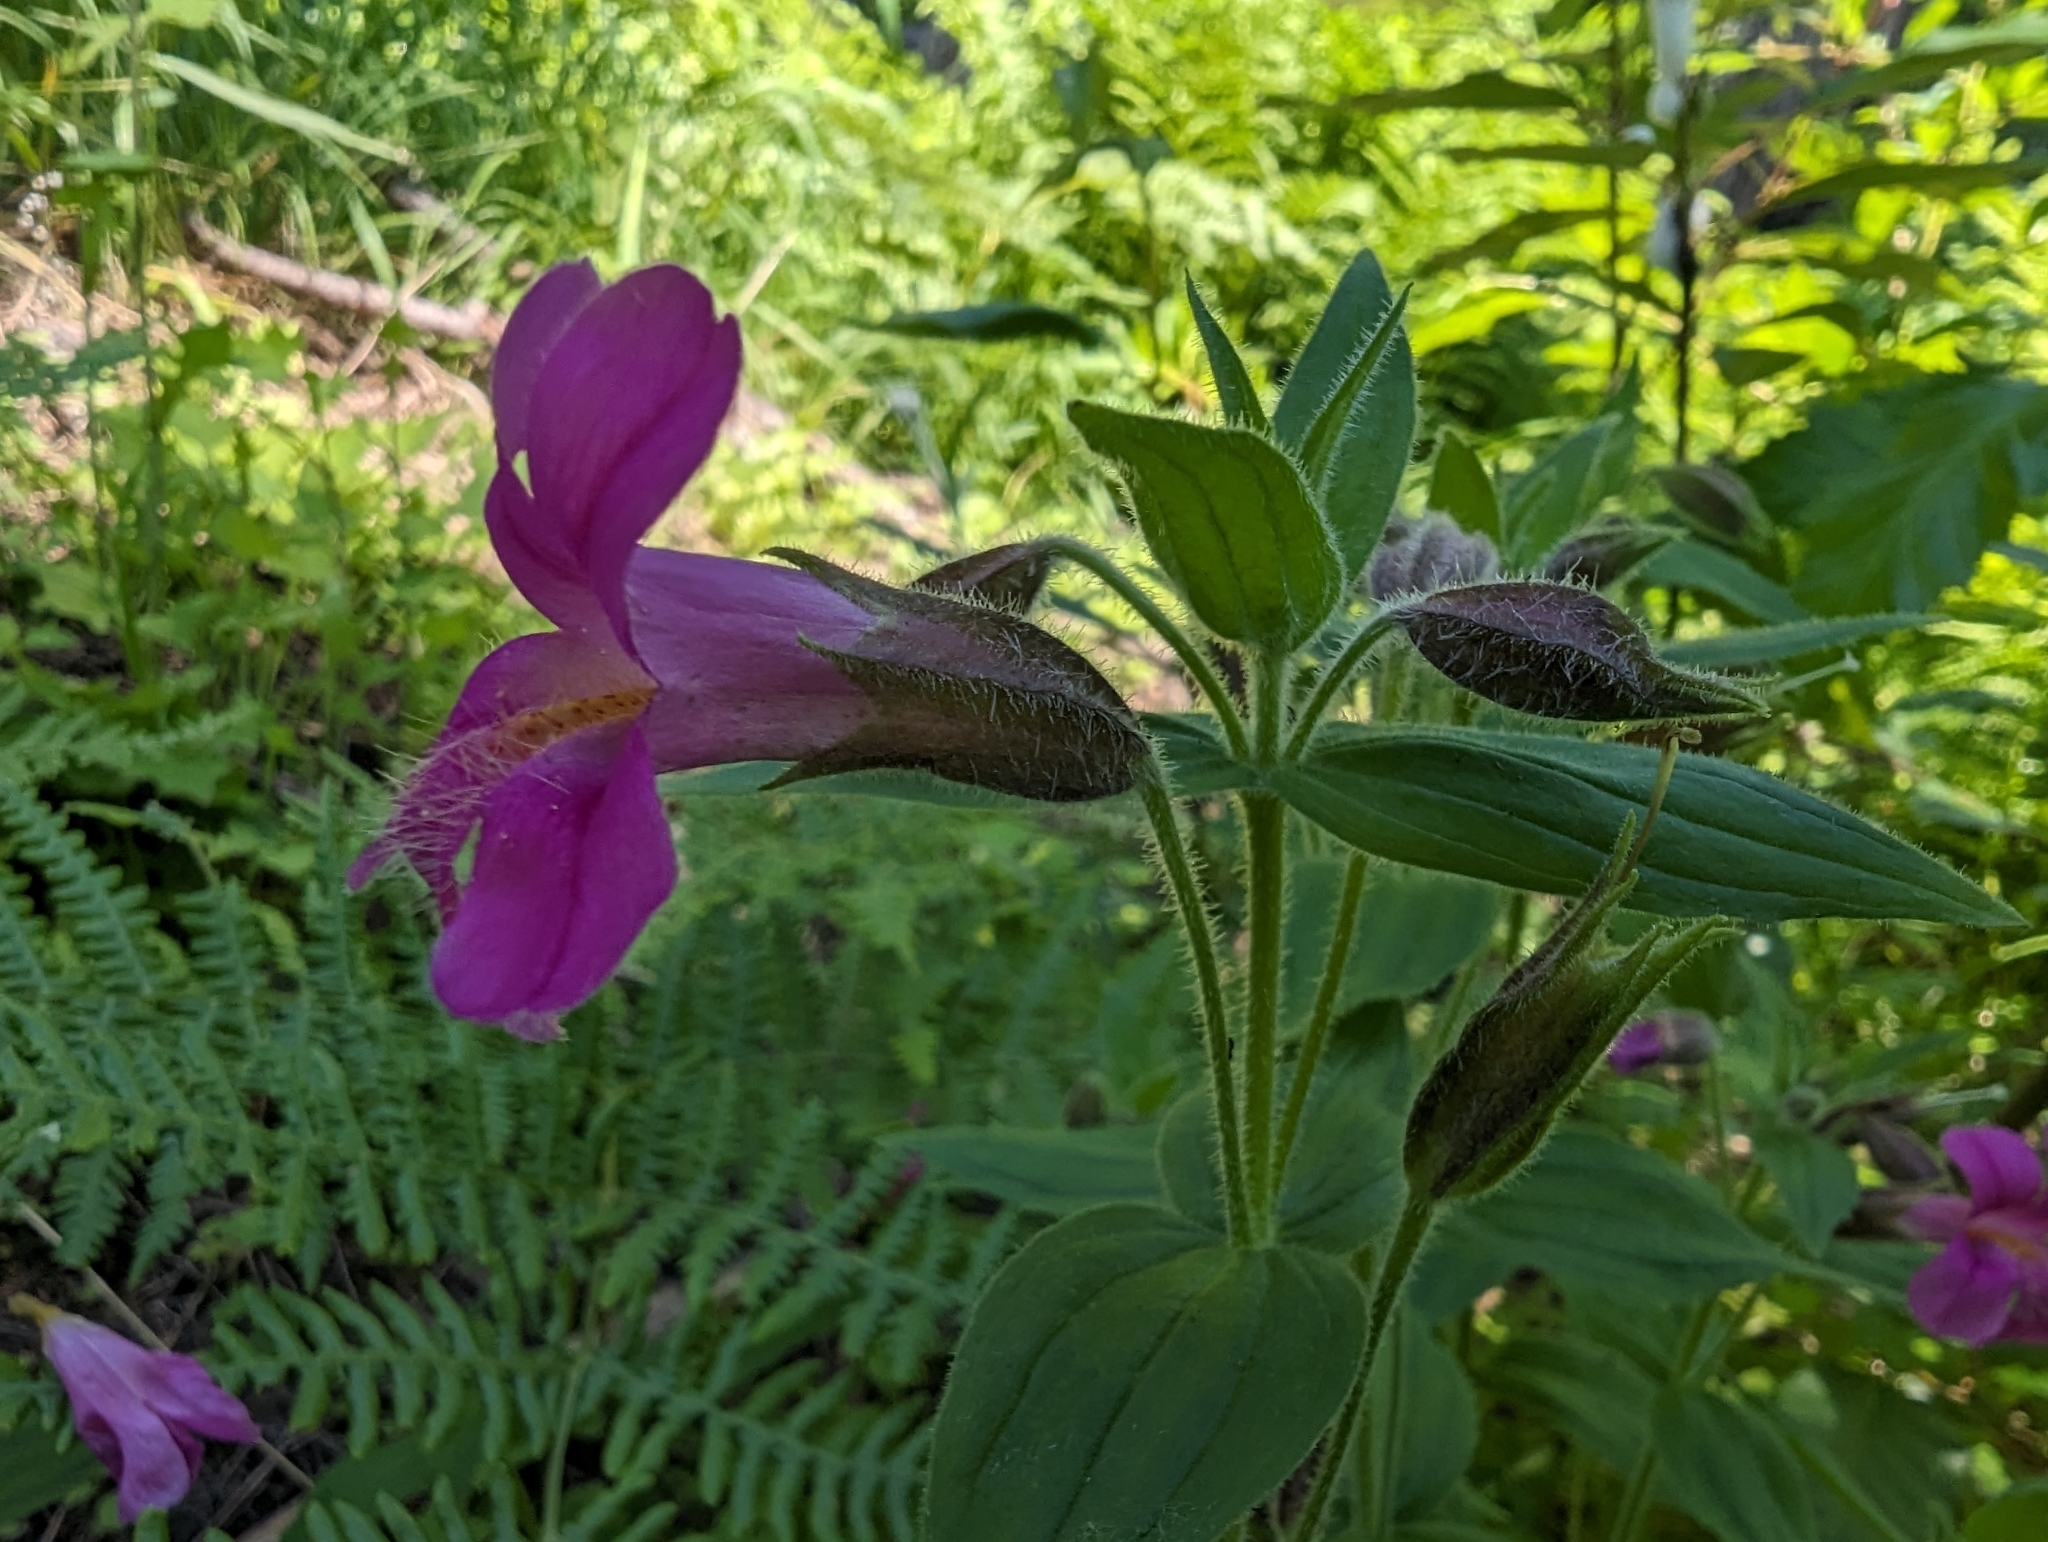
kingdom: Plantae
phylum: Tracheophyta
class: Magnoliopsida
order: Lamiales
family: Phrymaceae
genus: Erythranthe
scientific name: Erythranthe lewisii
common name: Lewis's monkey-flower
